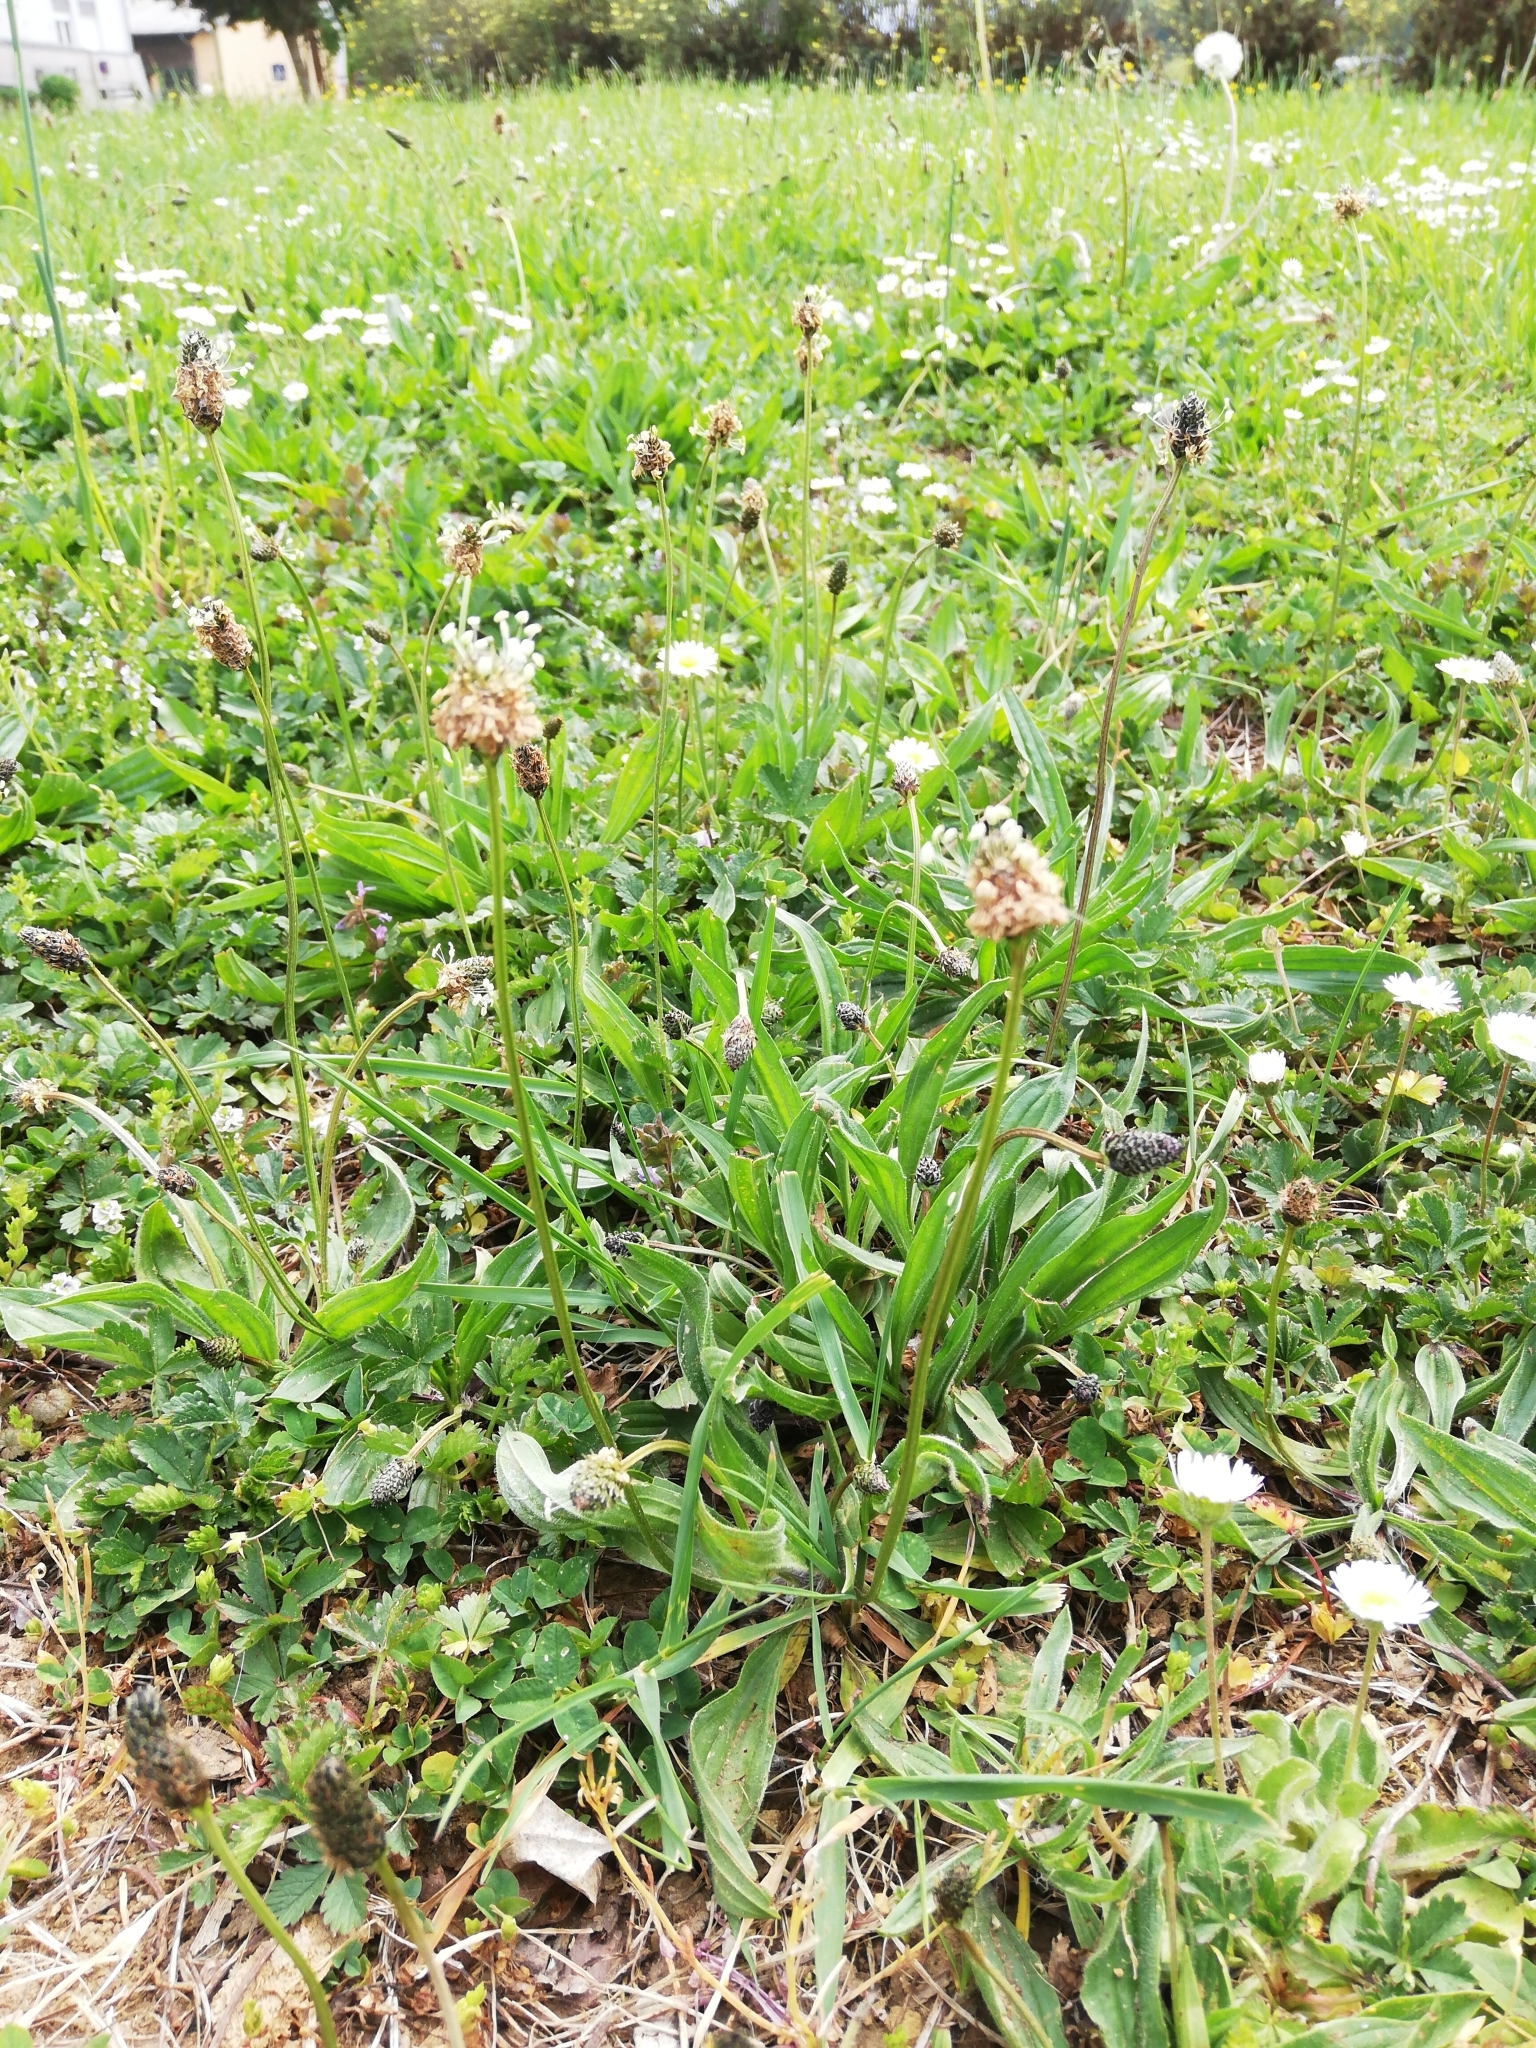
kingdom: Plantae
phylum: Tracheophyta
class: Magnoliopsida
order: Lamiales
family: Plantaginaceae
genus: Plantago
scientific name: Plantago lanceolata
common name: Ribwort plantain
